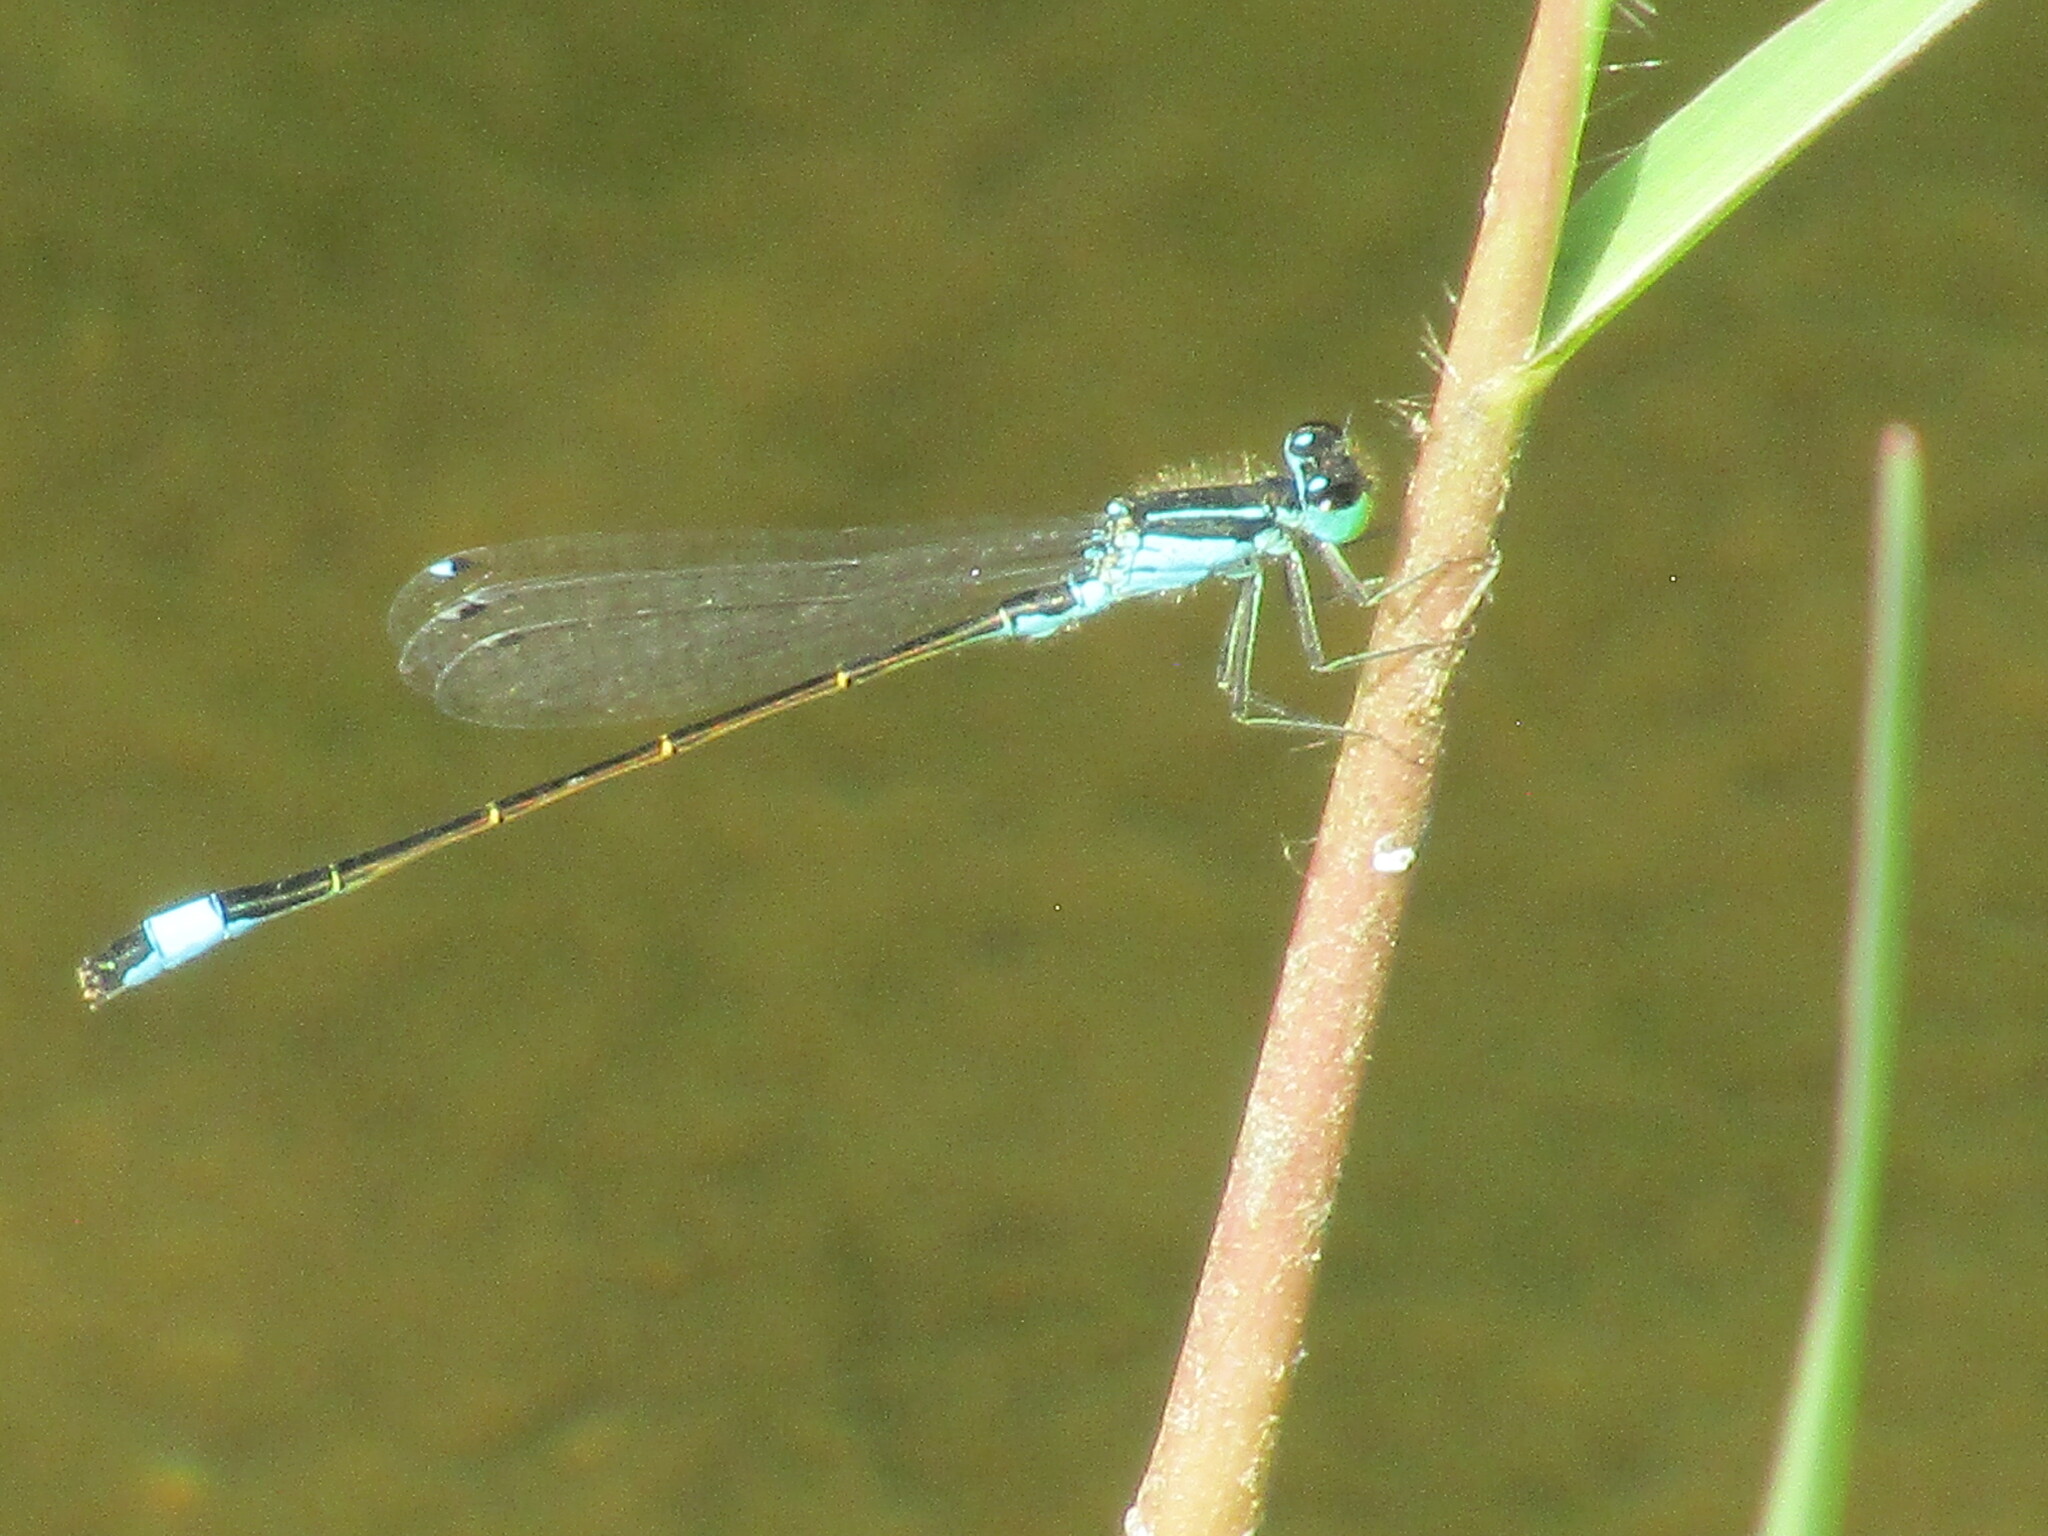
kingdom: Animalia
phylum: Arthropoda
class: Insecta
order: Odonata
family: Coenagrionidae
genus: Ischnura
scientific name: Ischnura elegans
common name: Blue-tailed damselfly
